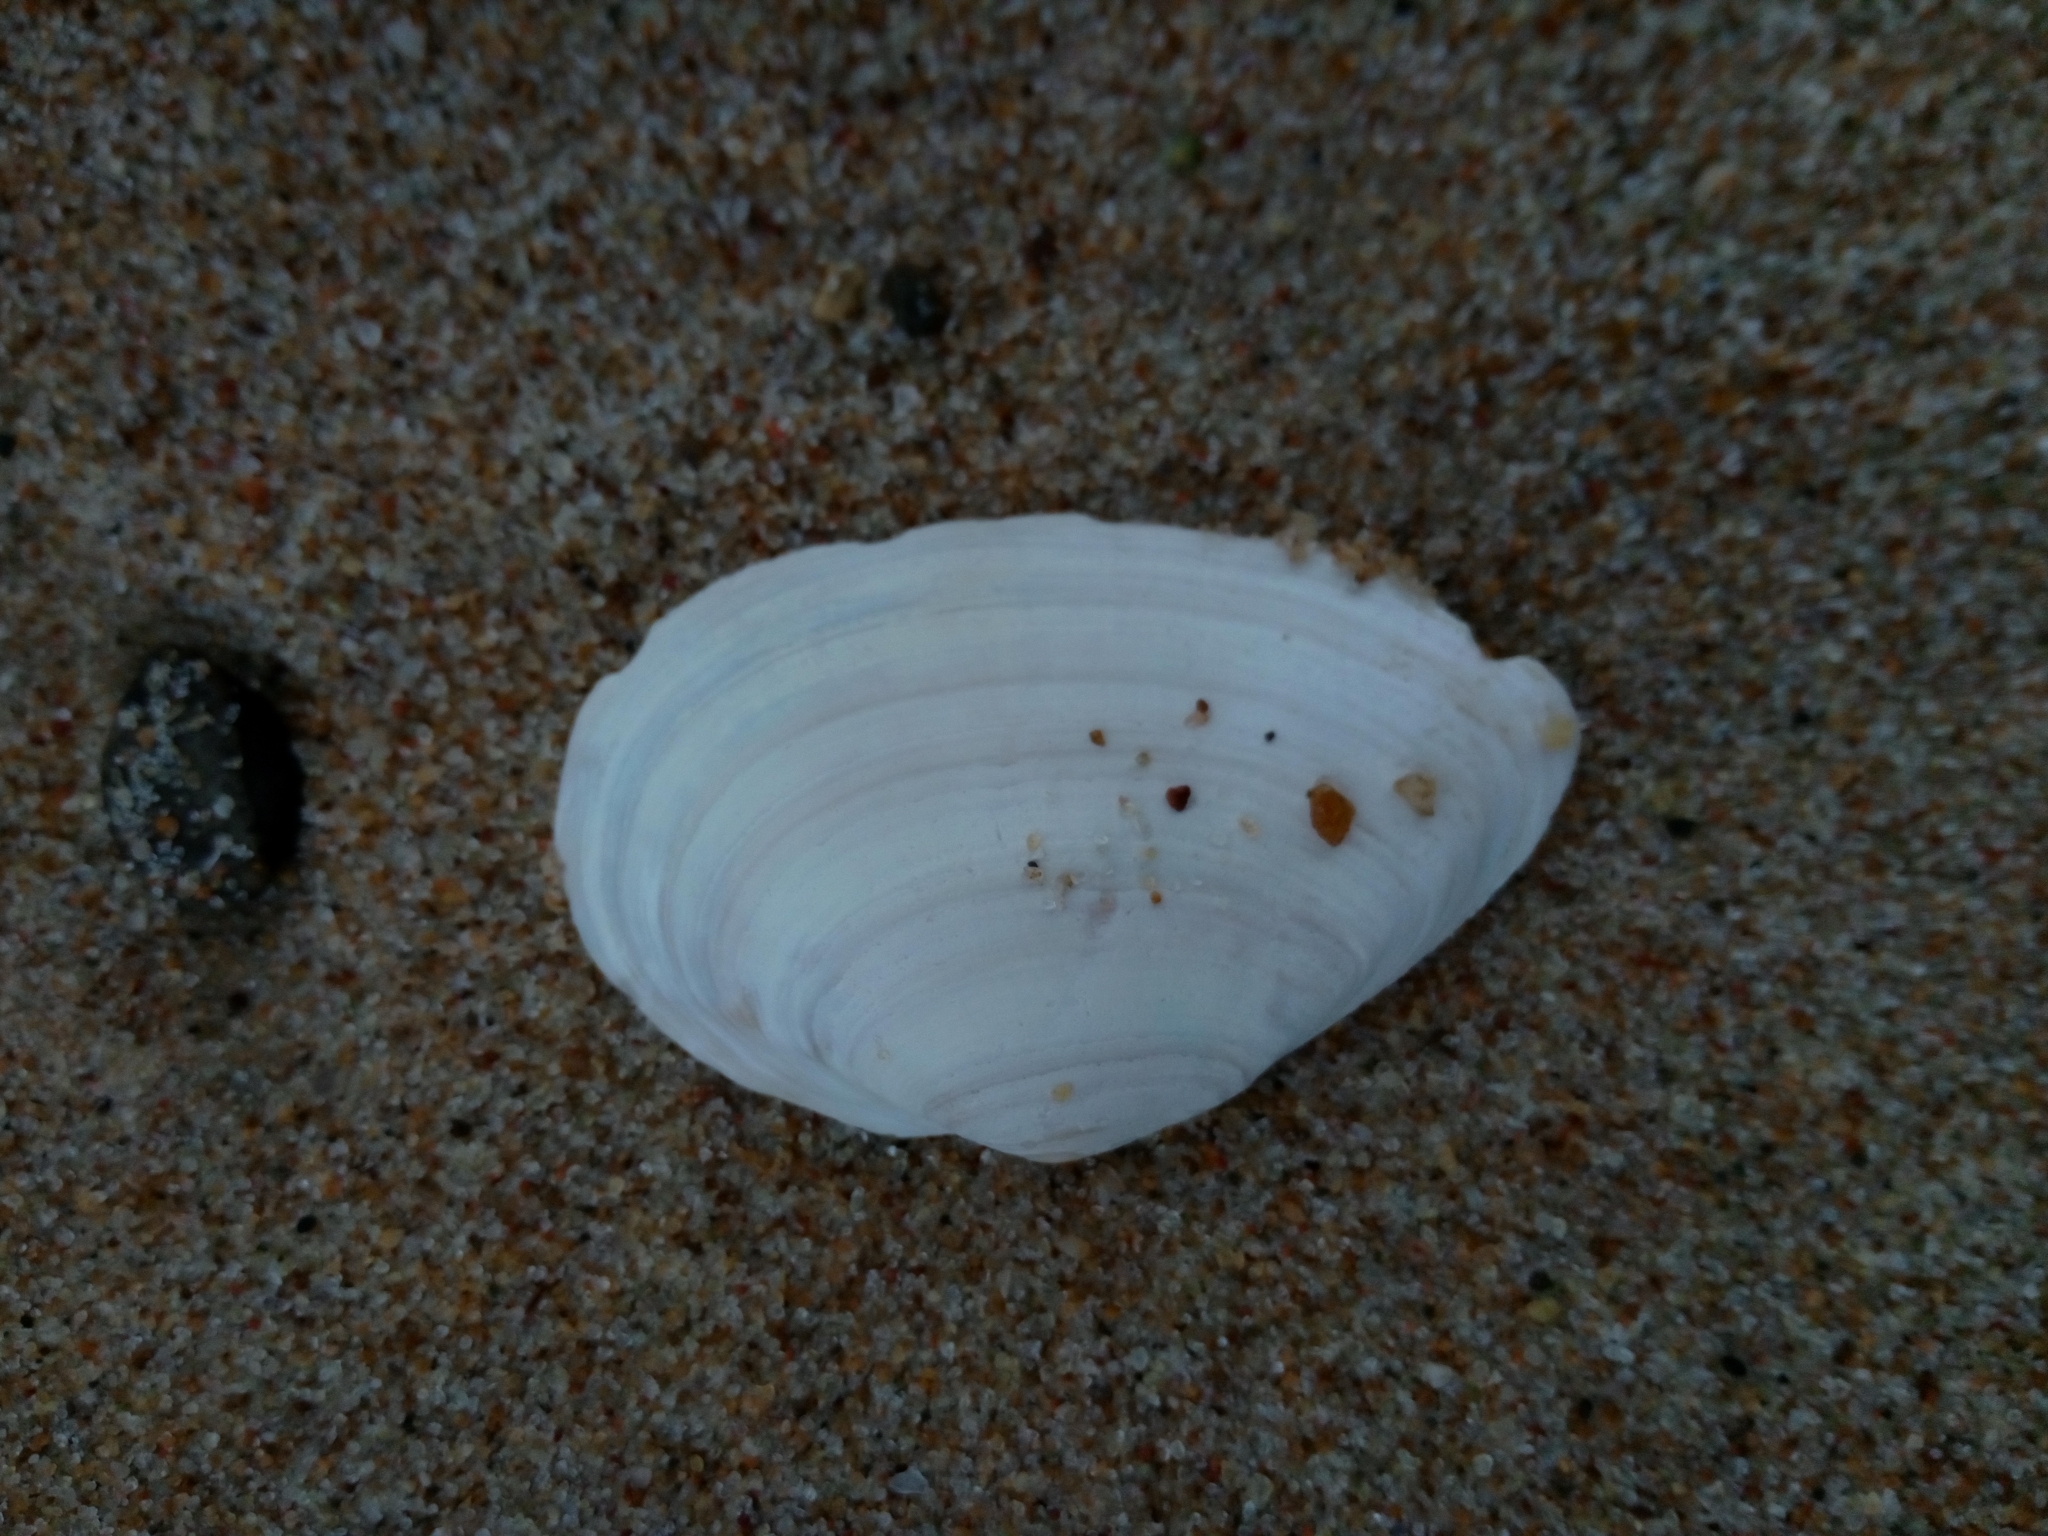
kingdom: Animalia
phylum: Mollusca
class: Bivalvia
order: Myida
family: Myidae
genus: Mya
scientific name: Mya arenaria
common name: Soft-shelled clam
